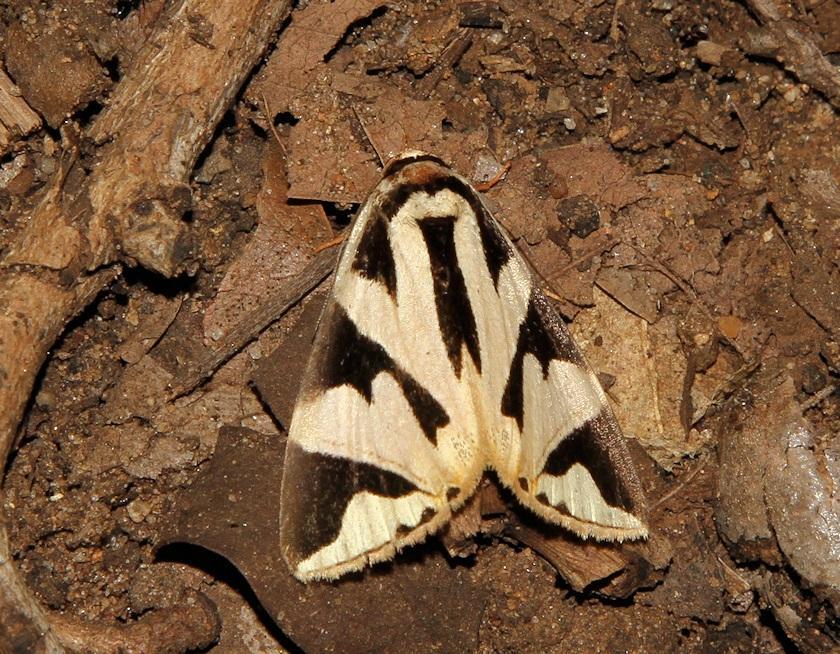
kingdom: Animalia
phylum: Arthropoda
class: Insecta
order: Lepidoptera
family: Erebidae
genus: Attatha
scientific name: Attatha attathoides
